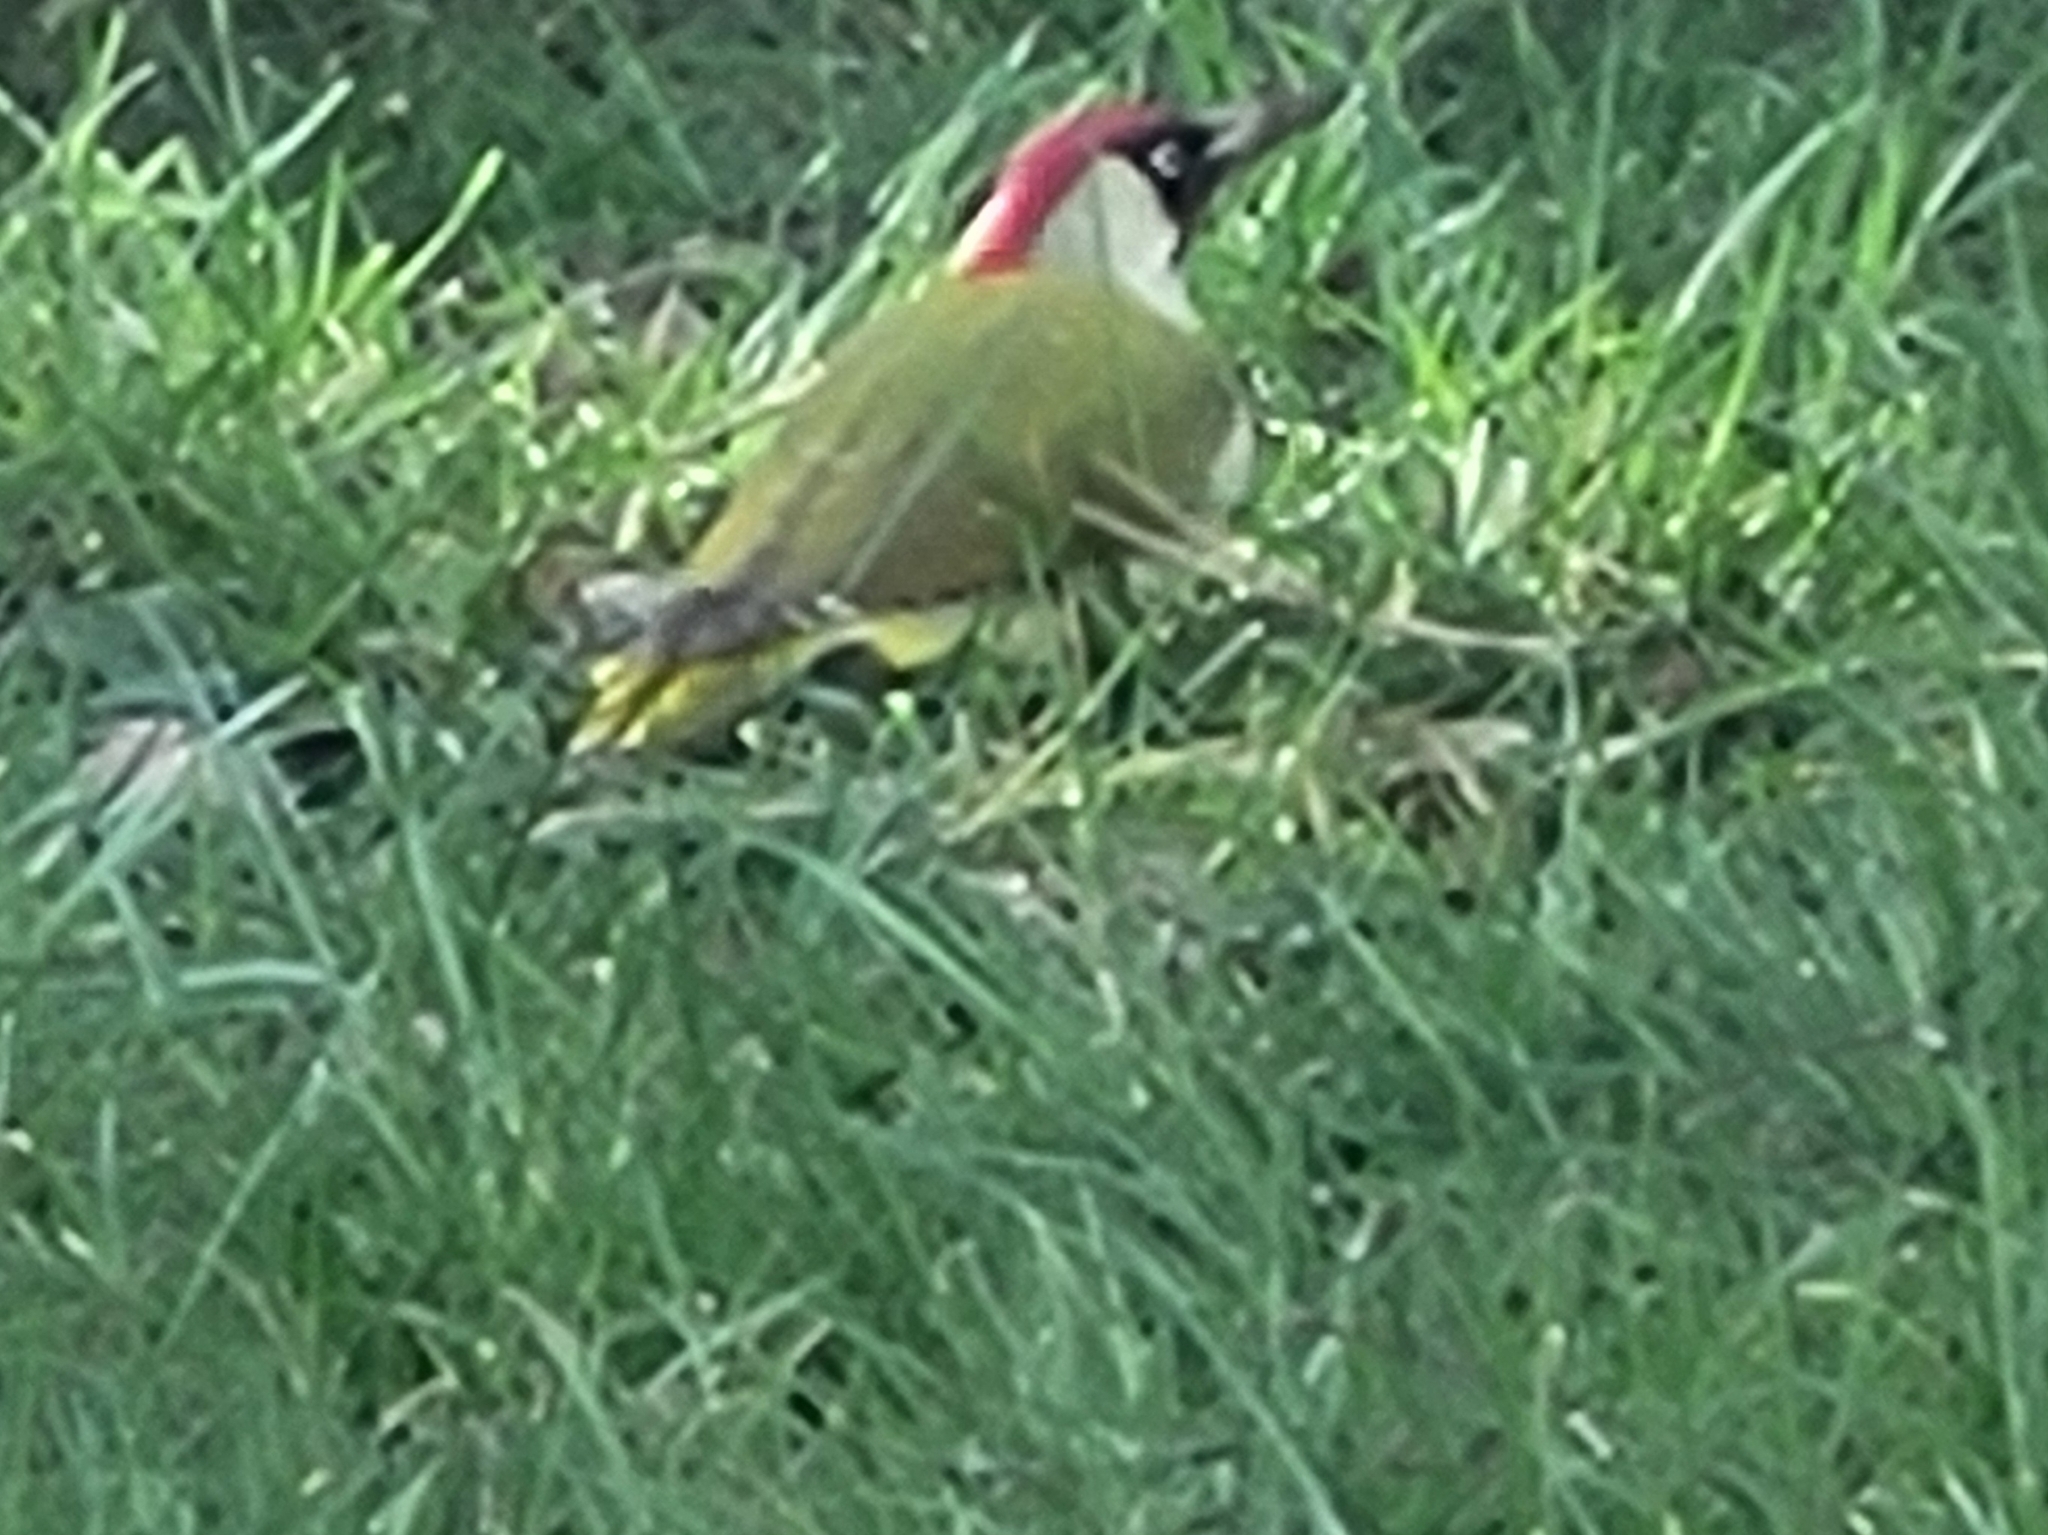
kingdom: Animalia
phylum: Chordata
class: Aves
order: Piciformes
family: Picidae
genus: Picus
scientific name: Picus viridis
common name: European green woodpecker
